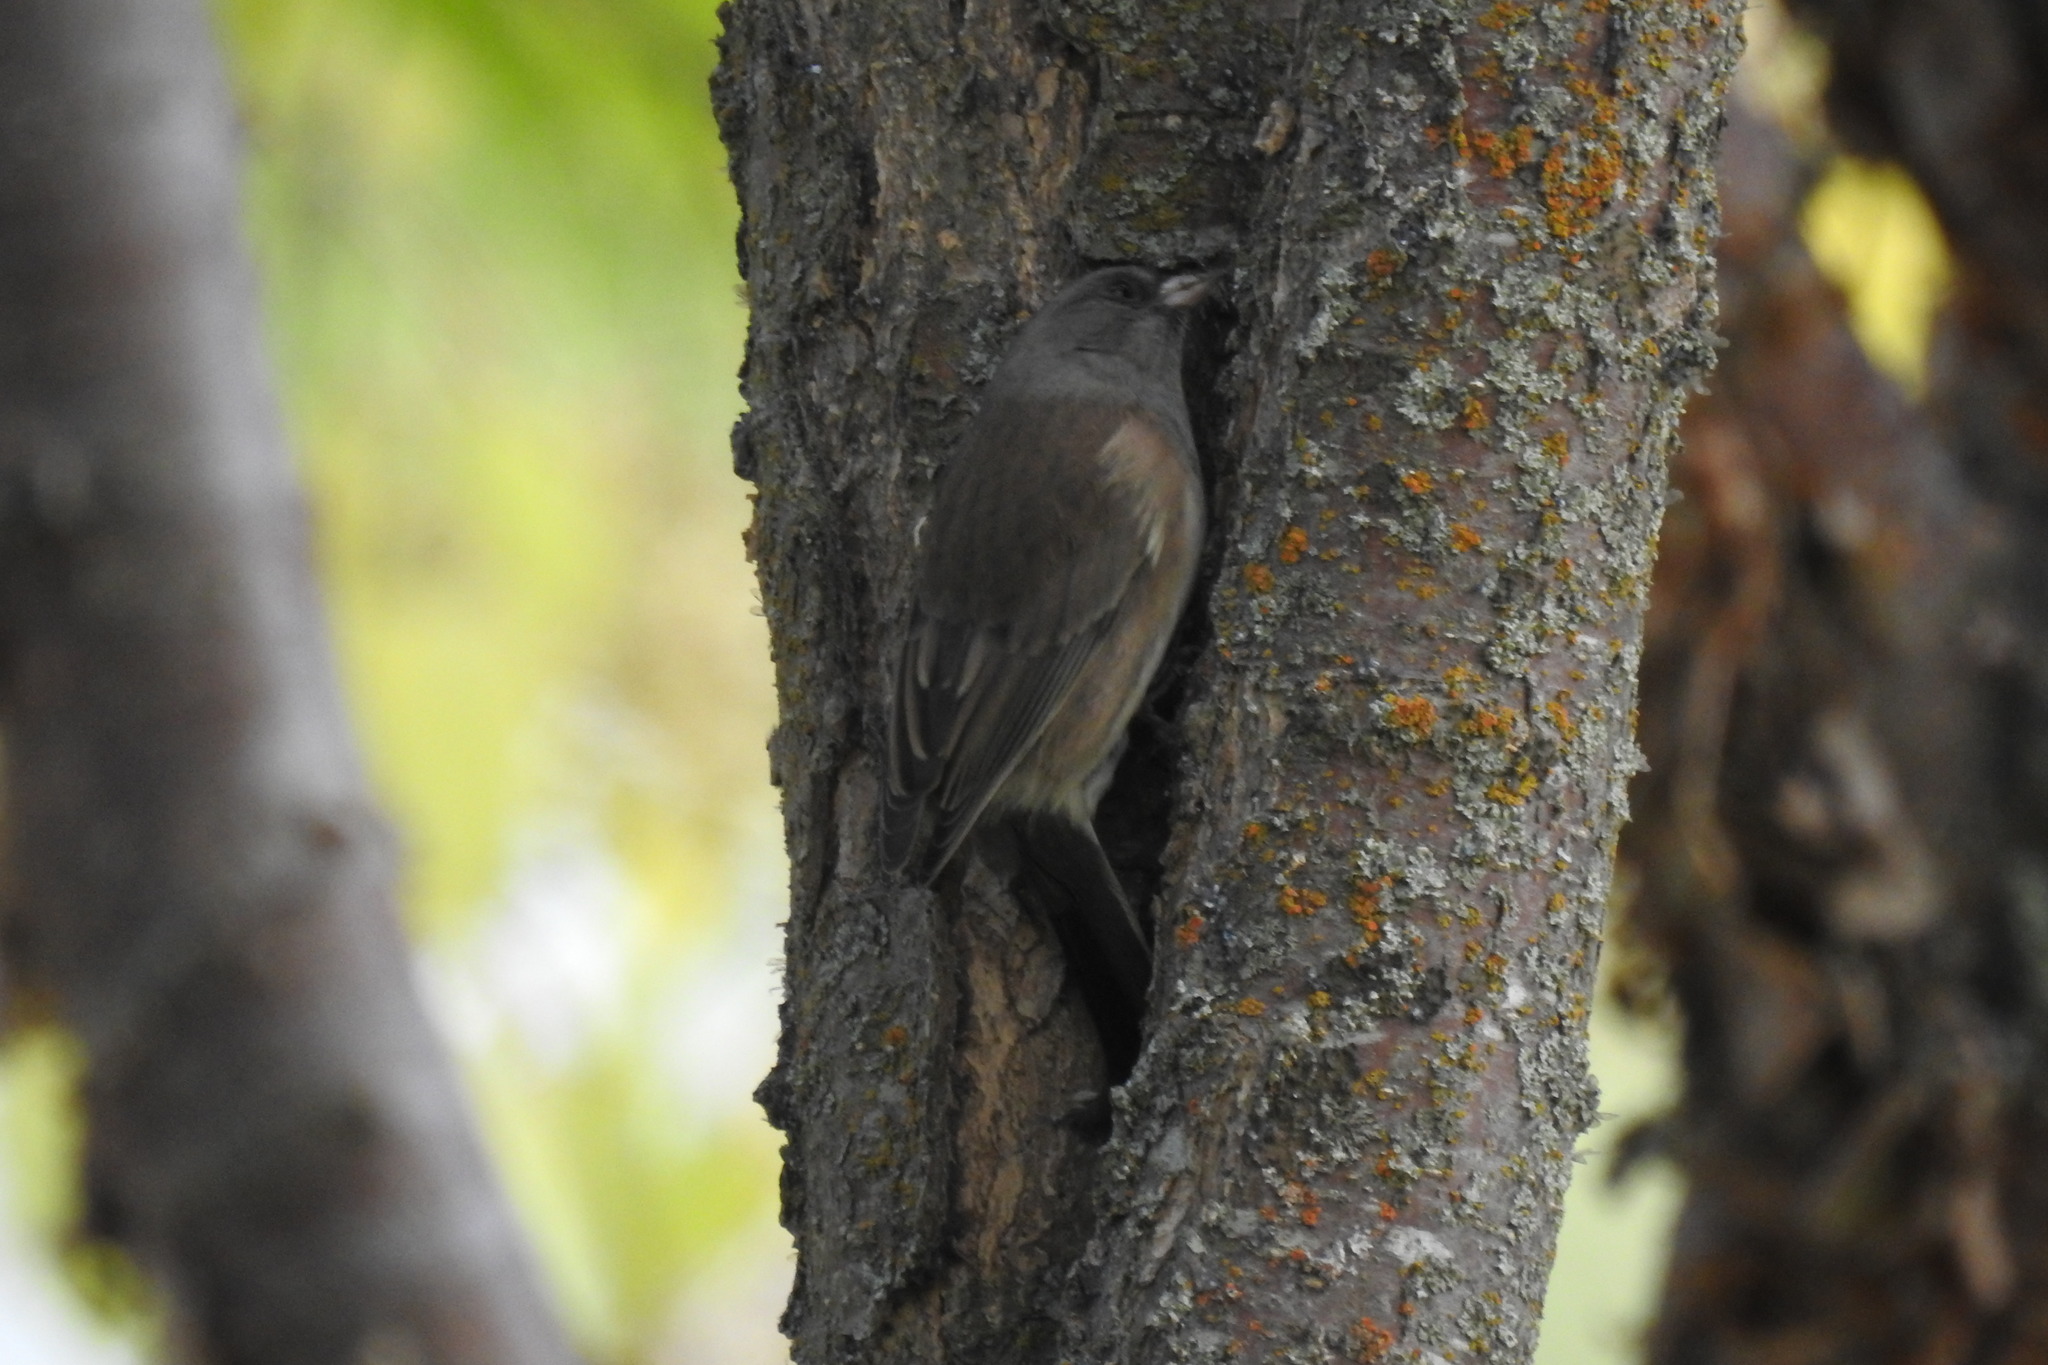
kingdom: Animalia
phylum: Chordata
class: Aves
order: Passeriformes
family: Passerellidae
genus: Junco
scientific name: Junco hyemalis
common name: Dark-eyed junco
